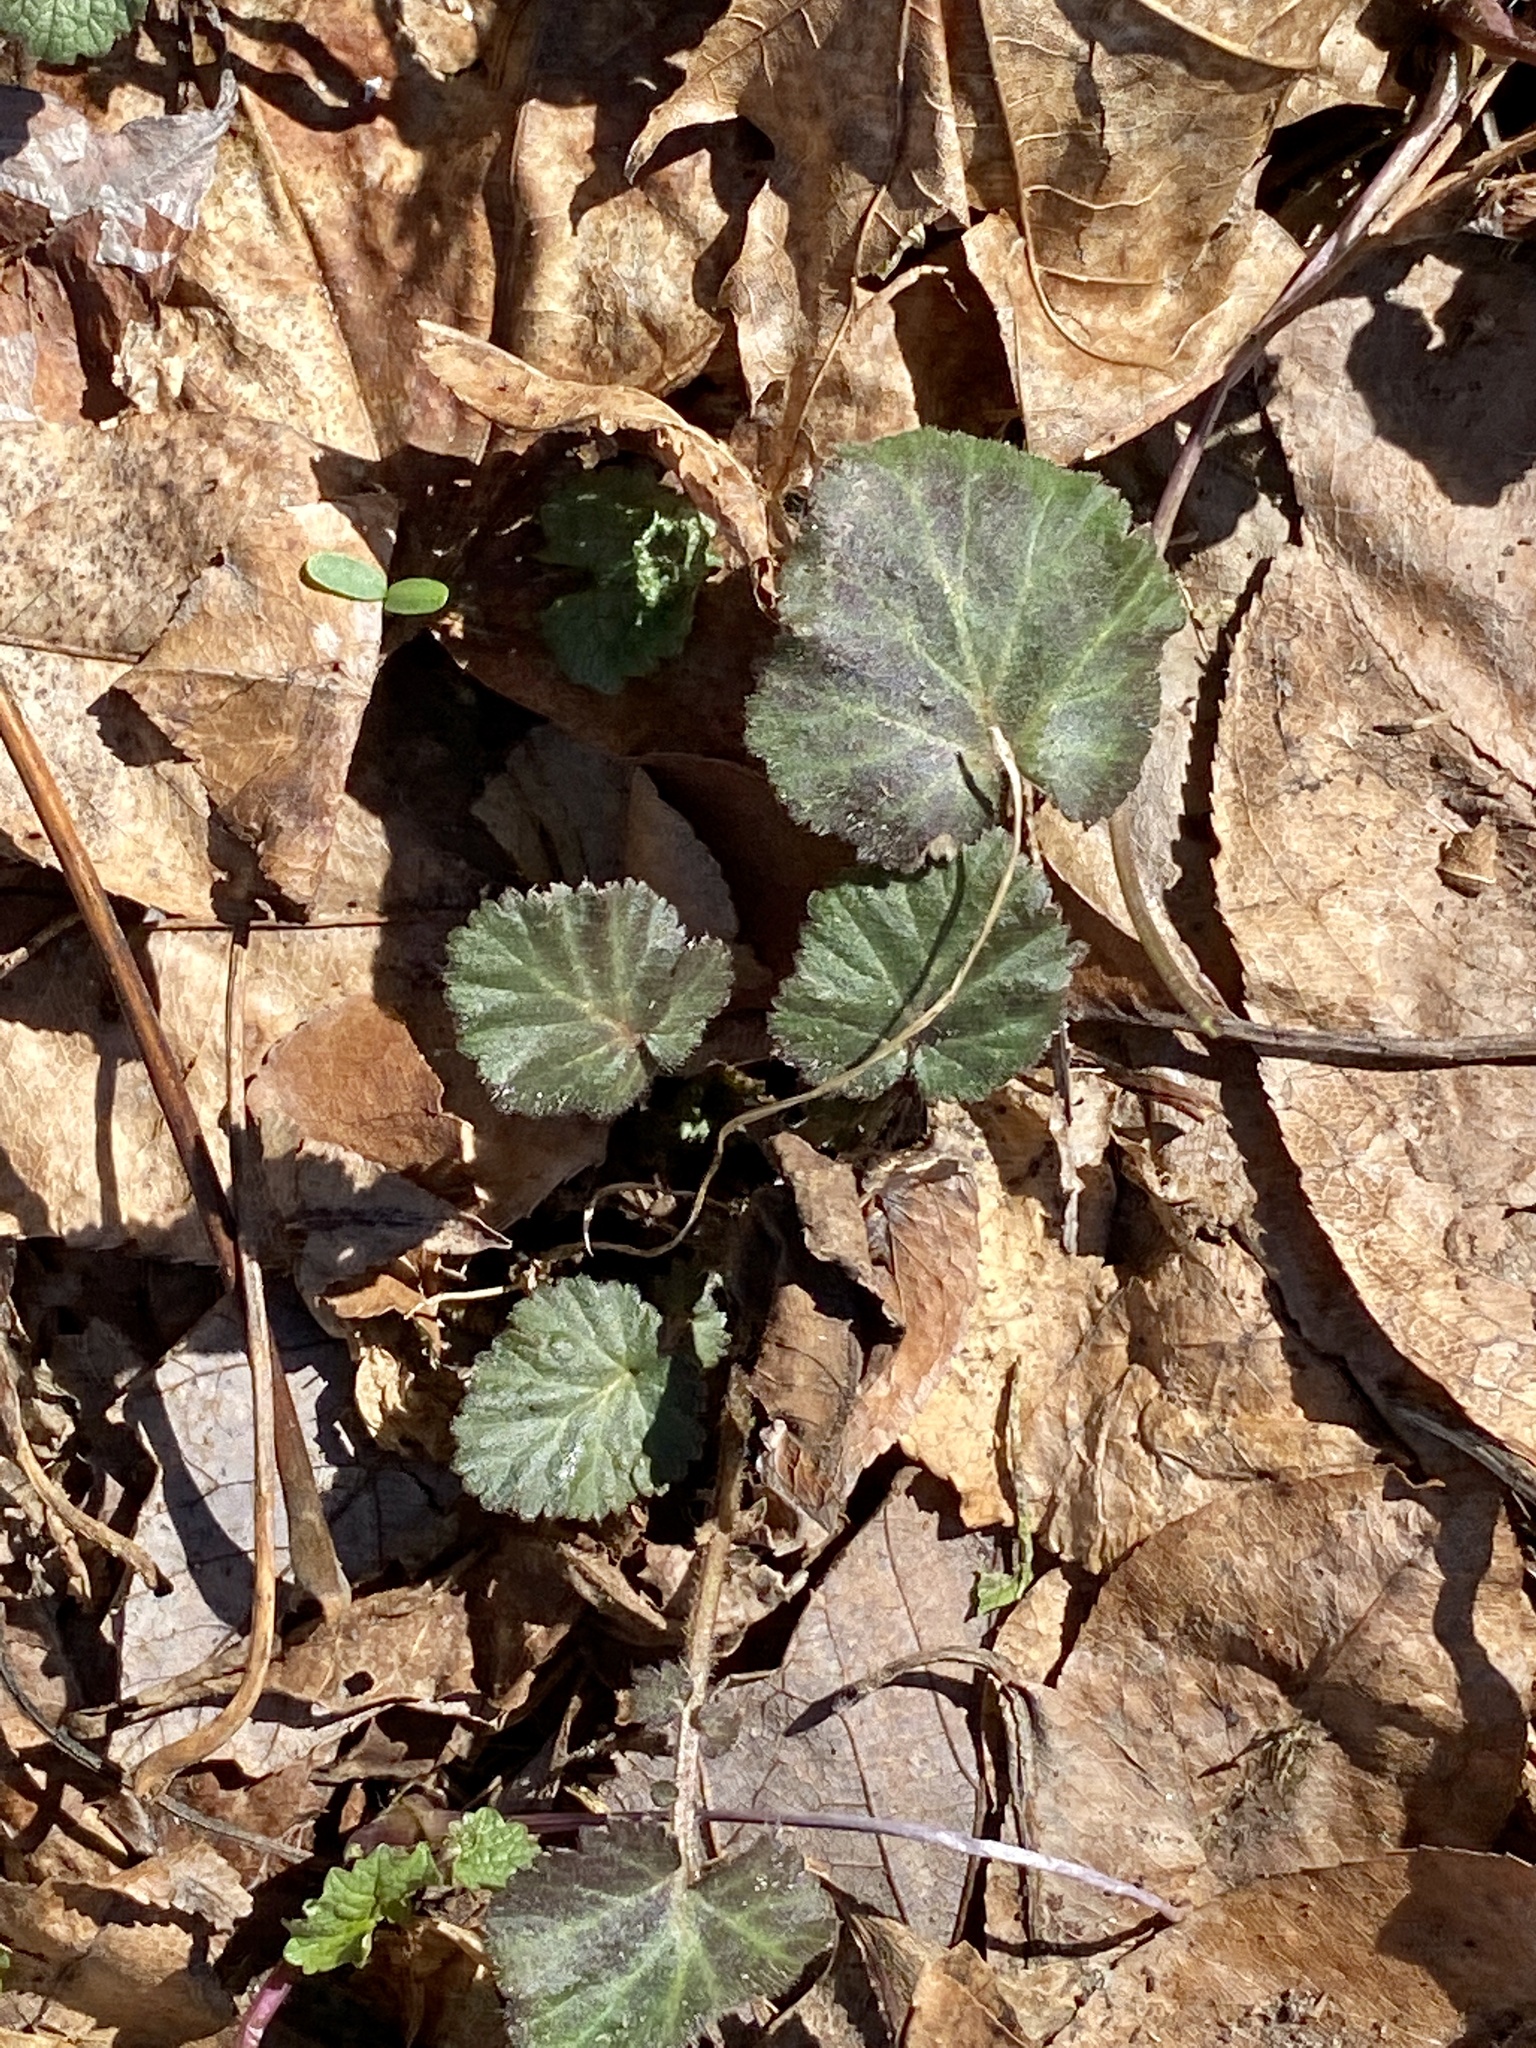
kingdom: Plantae
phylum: Tracheophyta
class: Magnoliopsida
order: Rosales
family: Rosaceae
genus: Geum
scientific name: Geum canadense
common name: White avens
